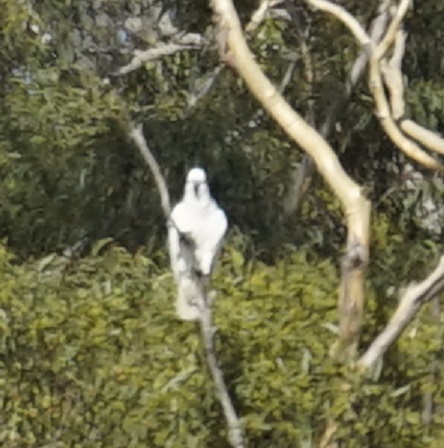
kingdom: Animalia
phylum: Chordata
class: Aves
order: Psittaciformes
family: Psittacidae
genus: Cacatua
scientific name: Cacatua galerita
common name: Sulphur-crested cockatoo
